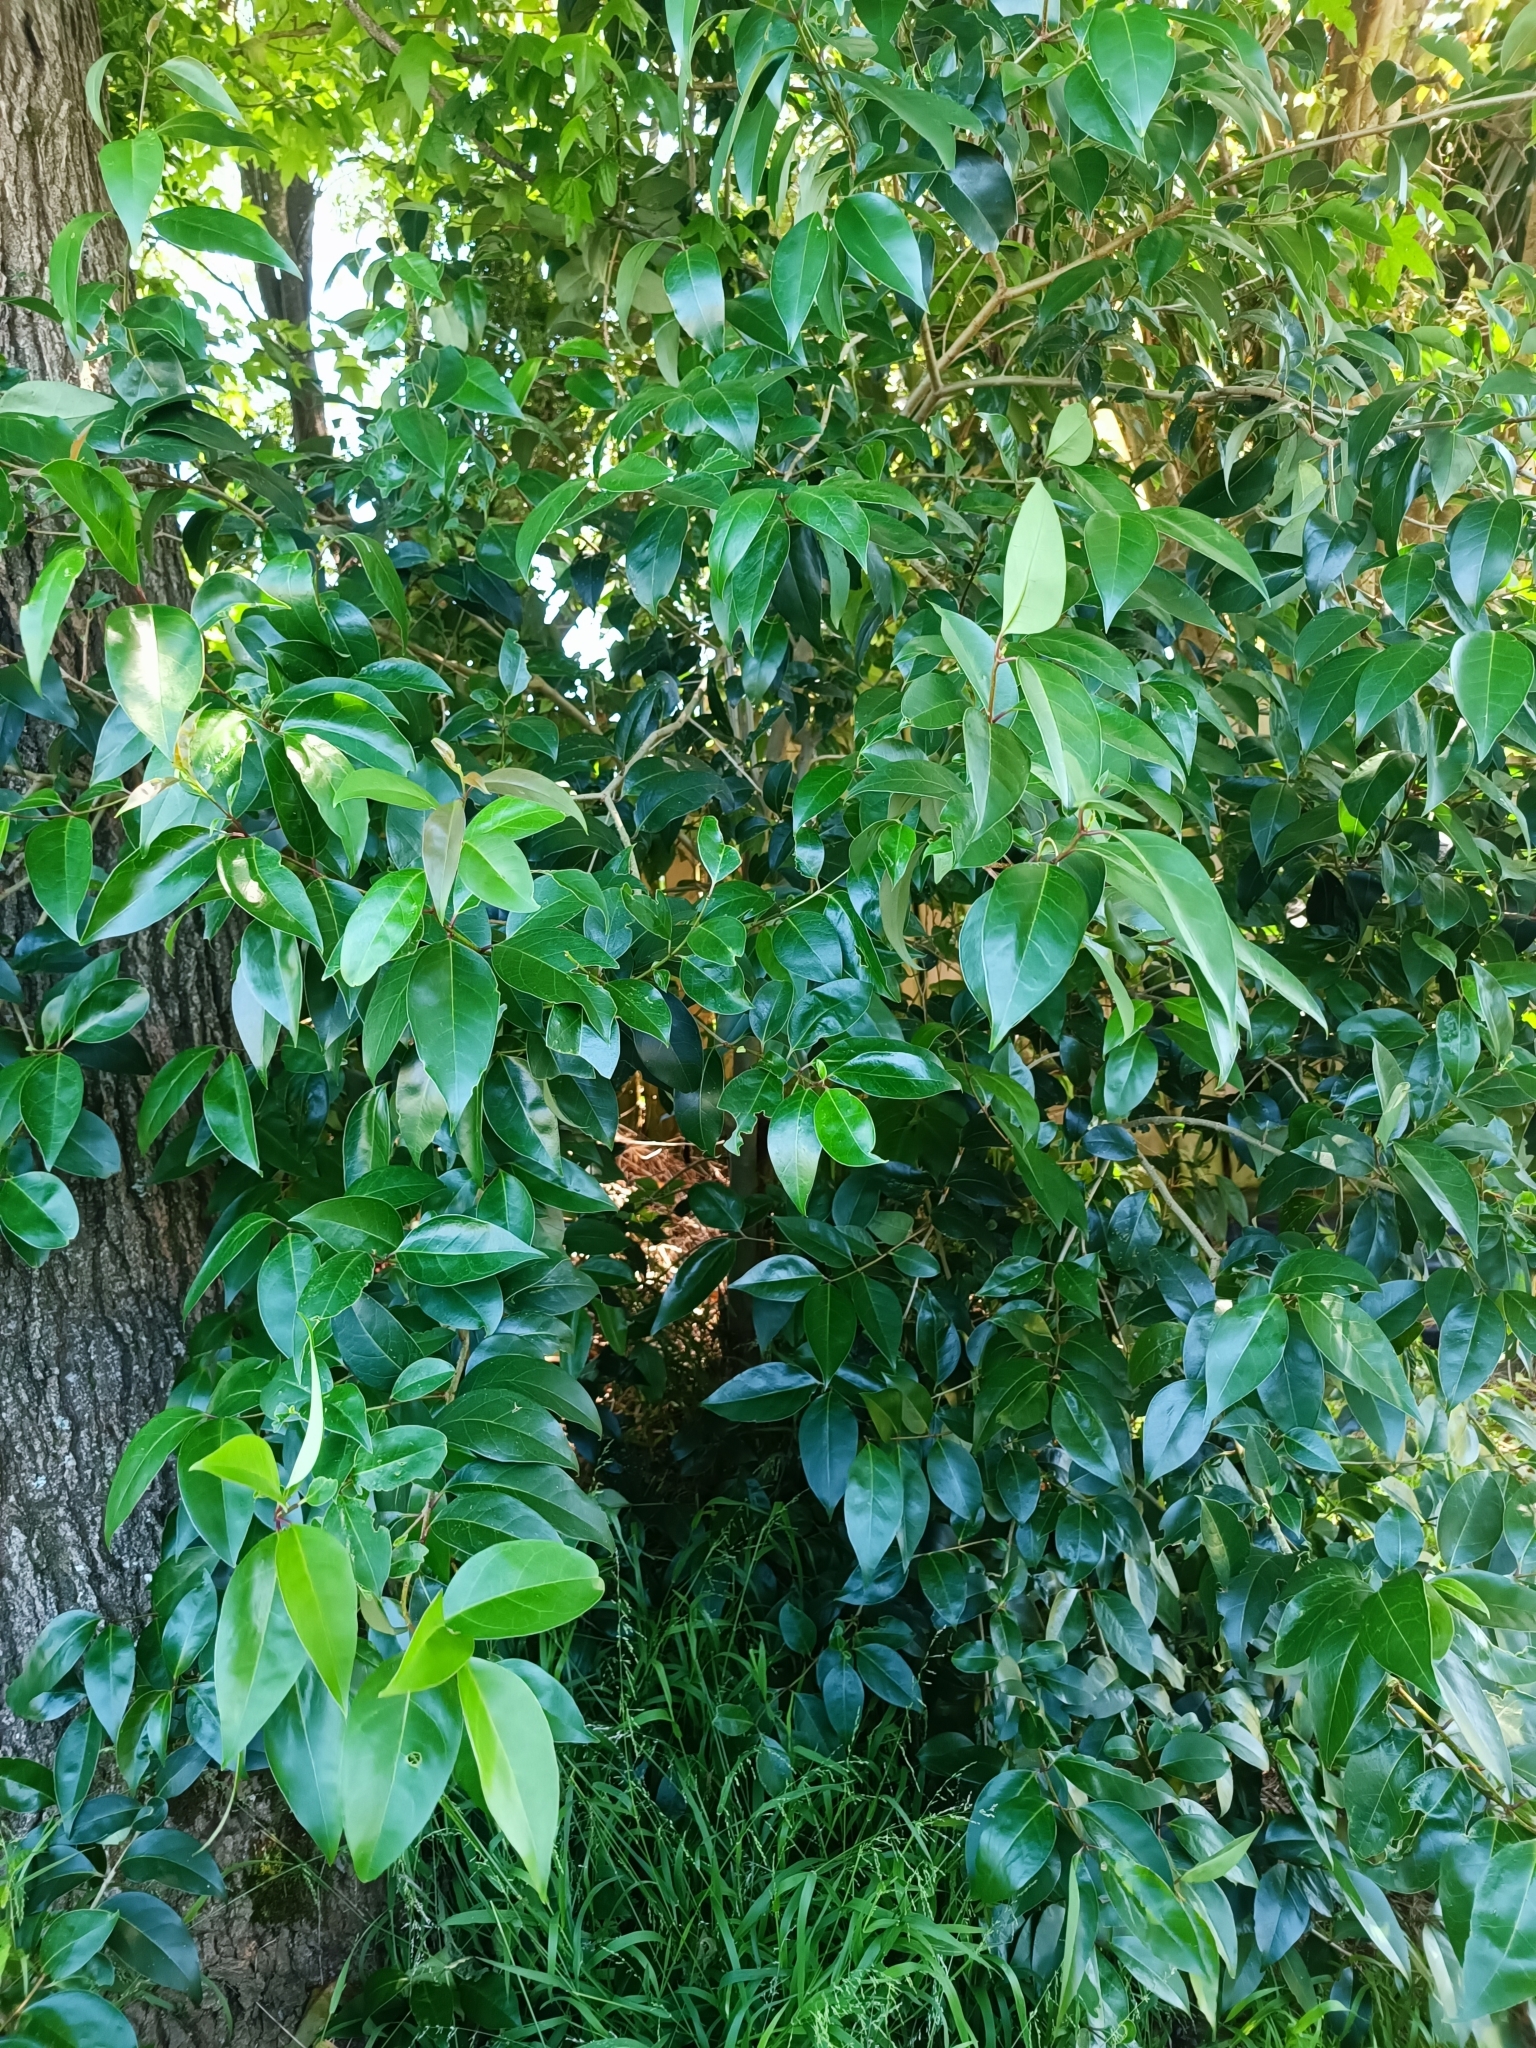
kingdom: Plantae
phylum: Tracheophyta
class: Magnoliopsida
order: Lamiales
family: Oleaceae
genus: Ligustrum
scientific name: Ligustrum lucidum
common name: Glossy privet
